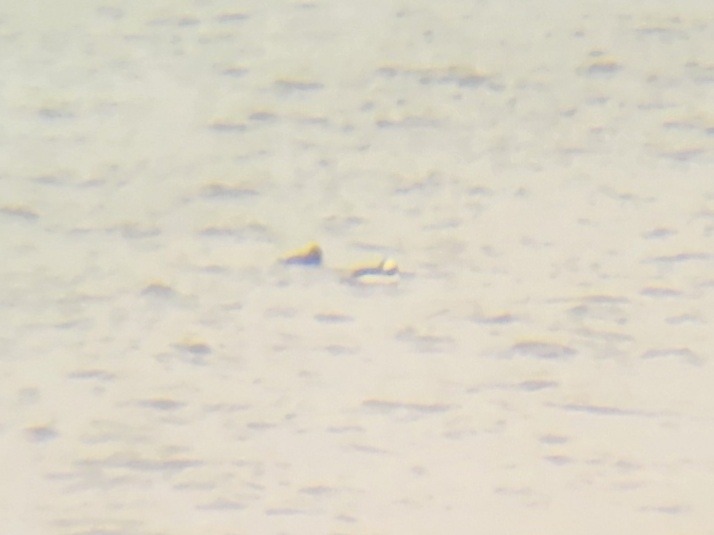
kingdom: Animalia
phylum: Chordata
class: Aves
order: Anseriformes
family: Anatidae
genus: Bucephala
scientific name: Bucephala albeola
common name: Bufflehead
